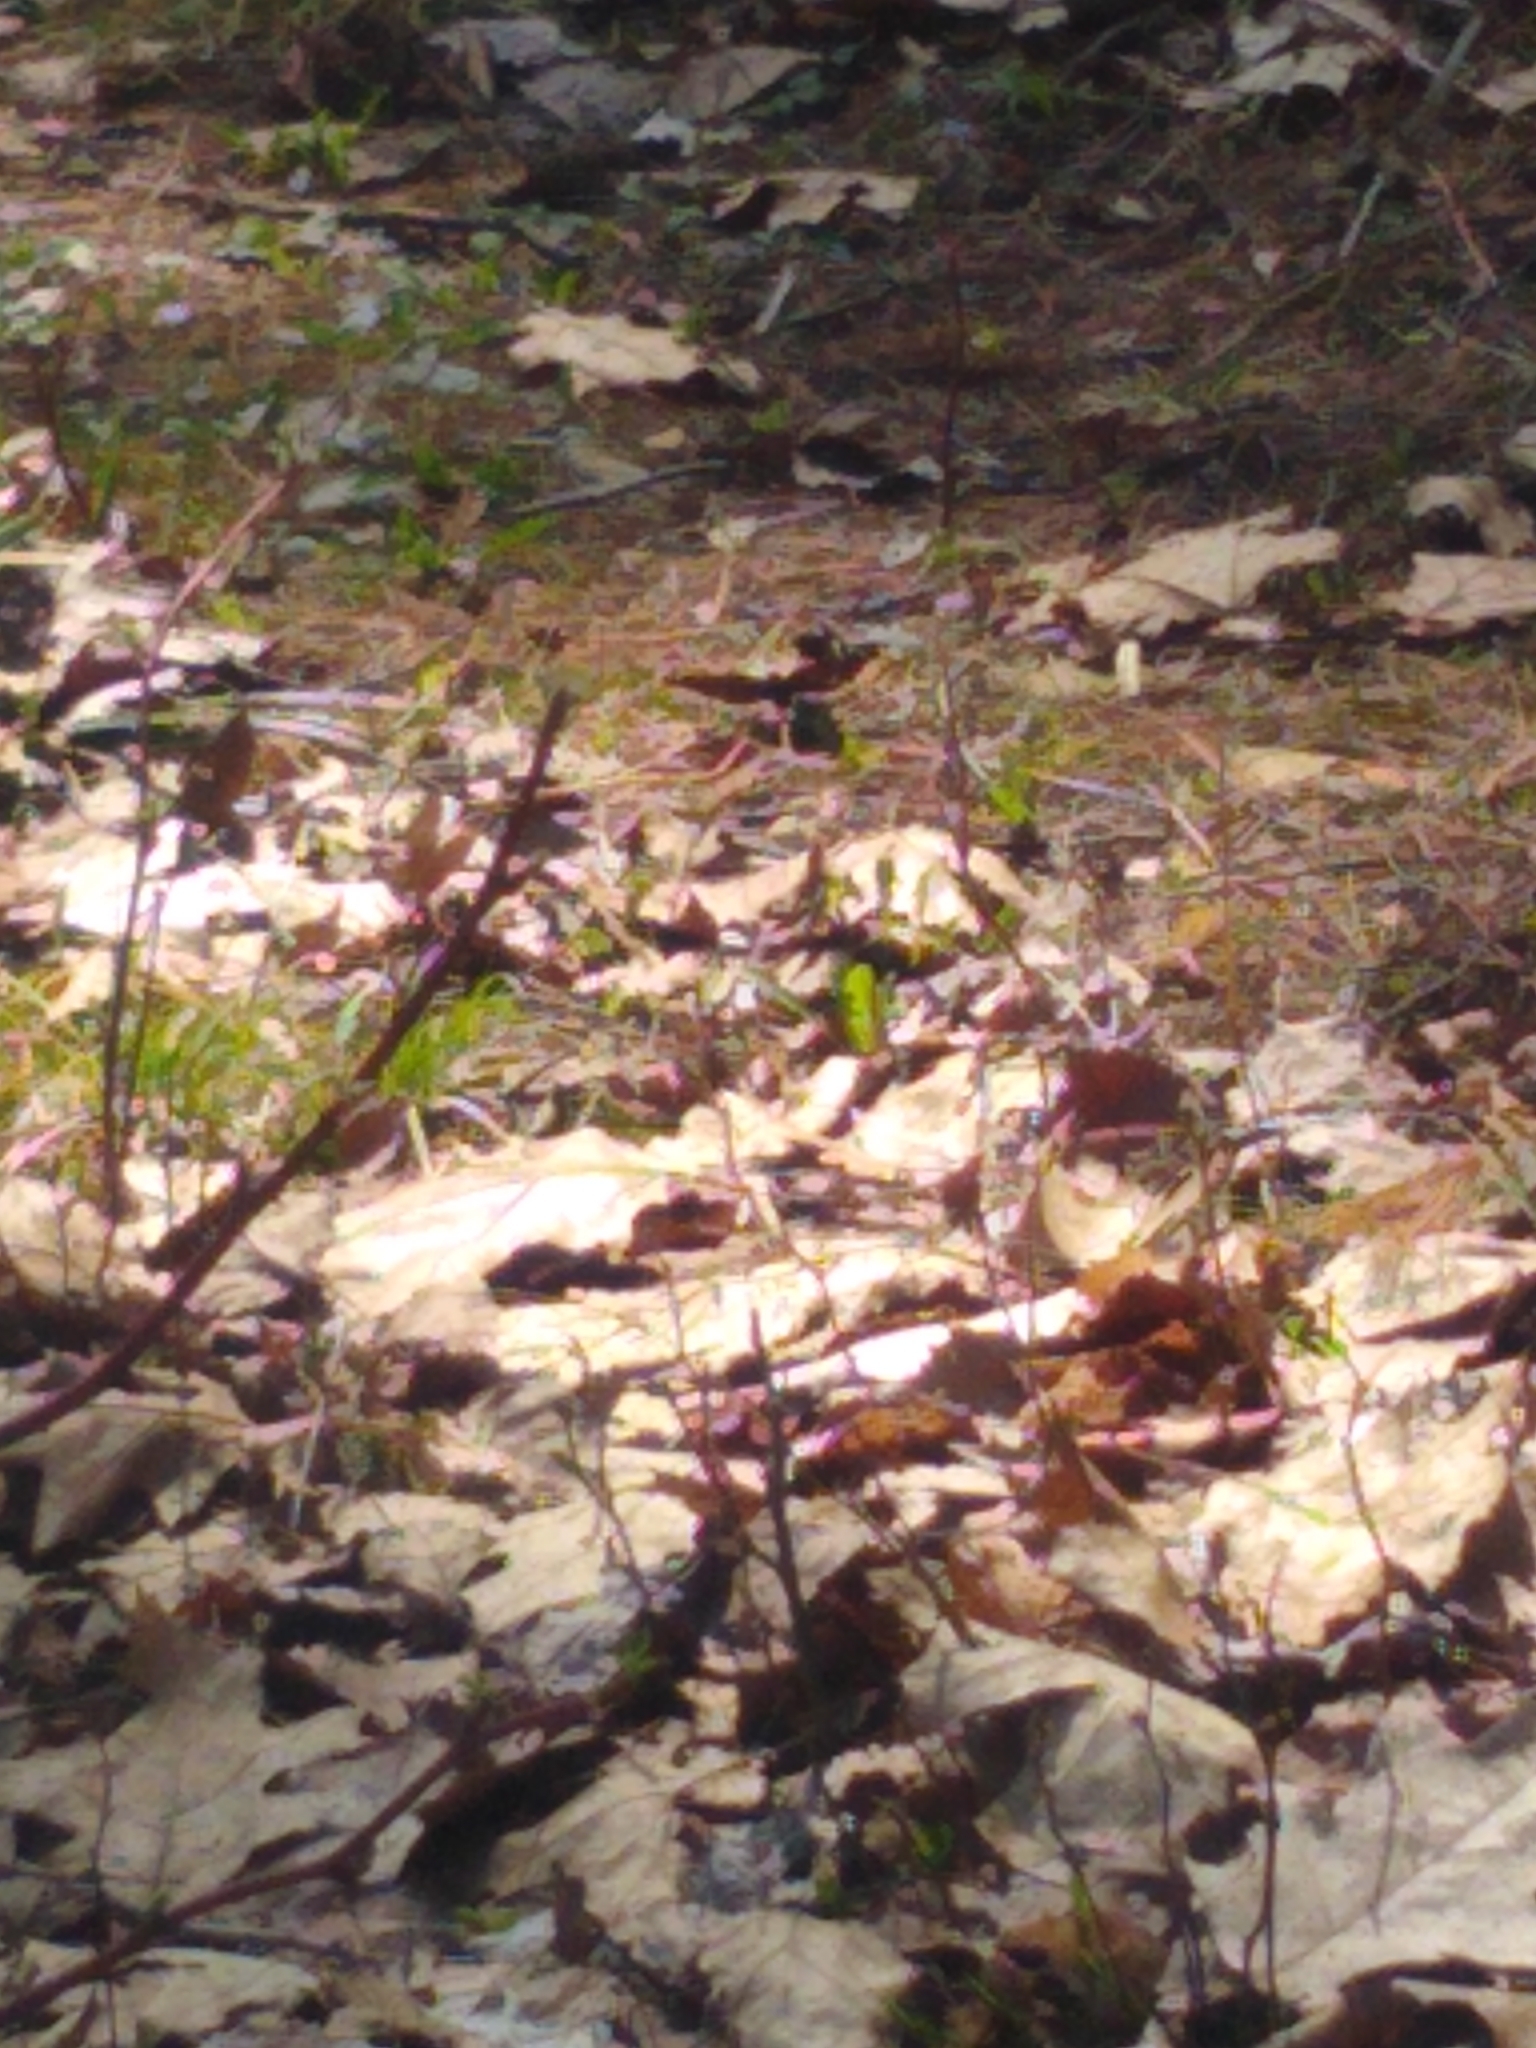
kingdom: Animalia
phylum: Arthropoda
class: Insecta
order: Lepidoptera
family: Nymphalidae
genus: Nymphalis
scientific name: Nymphalis antiopa
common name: Camberwell beauty
